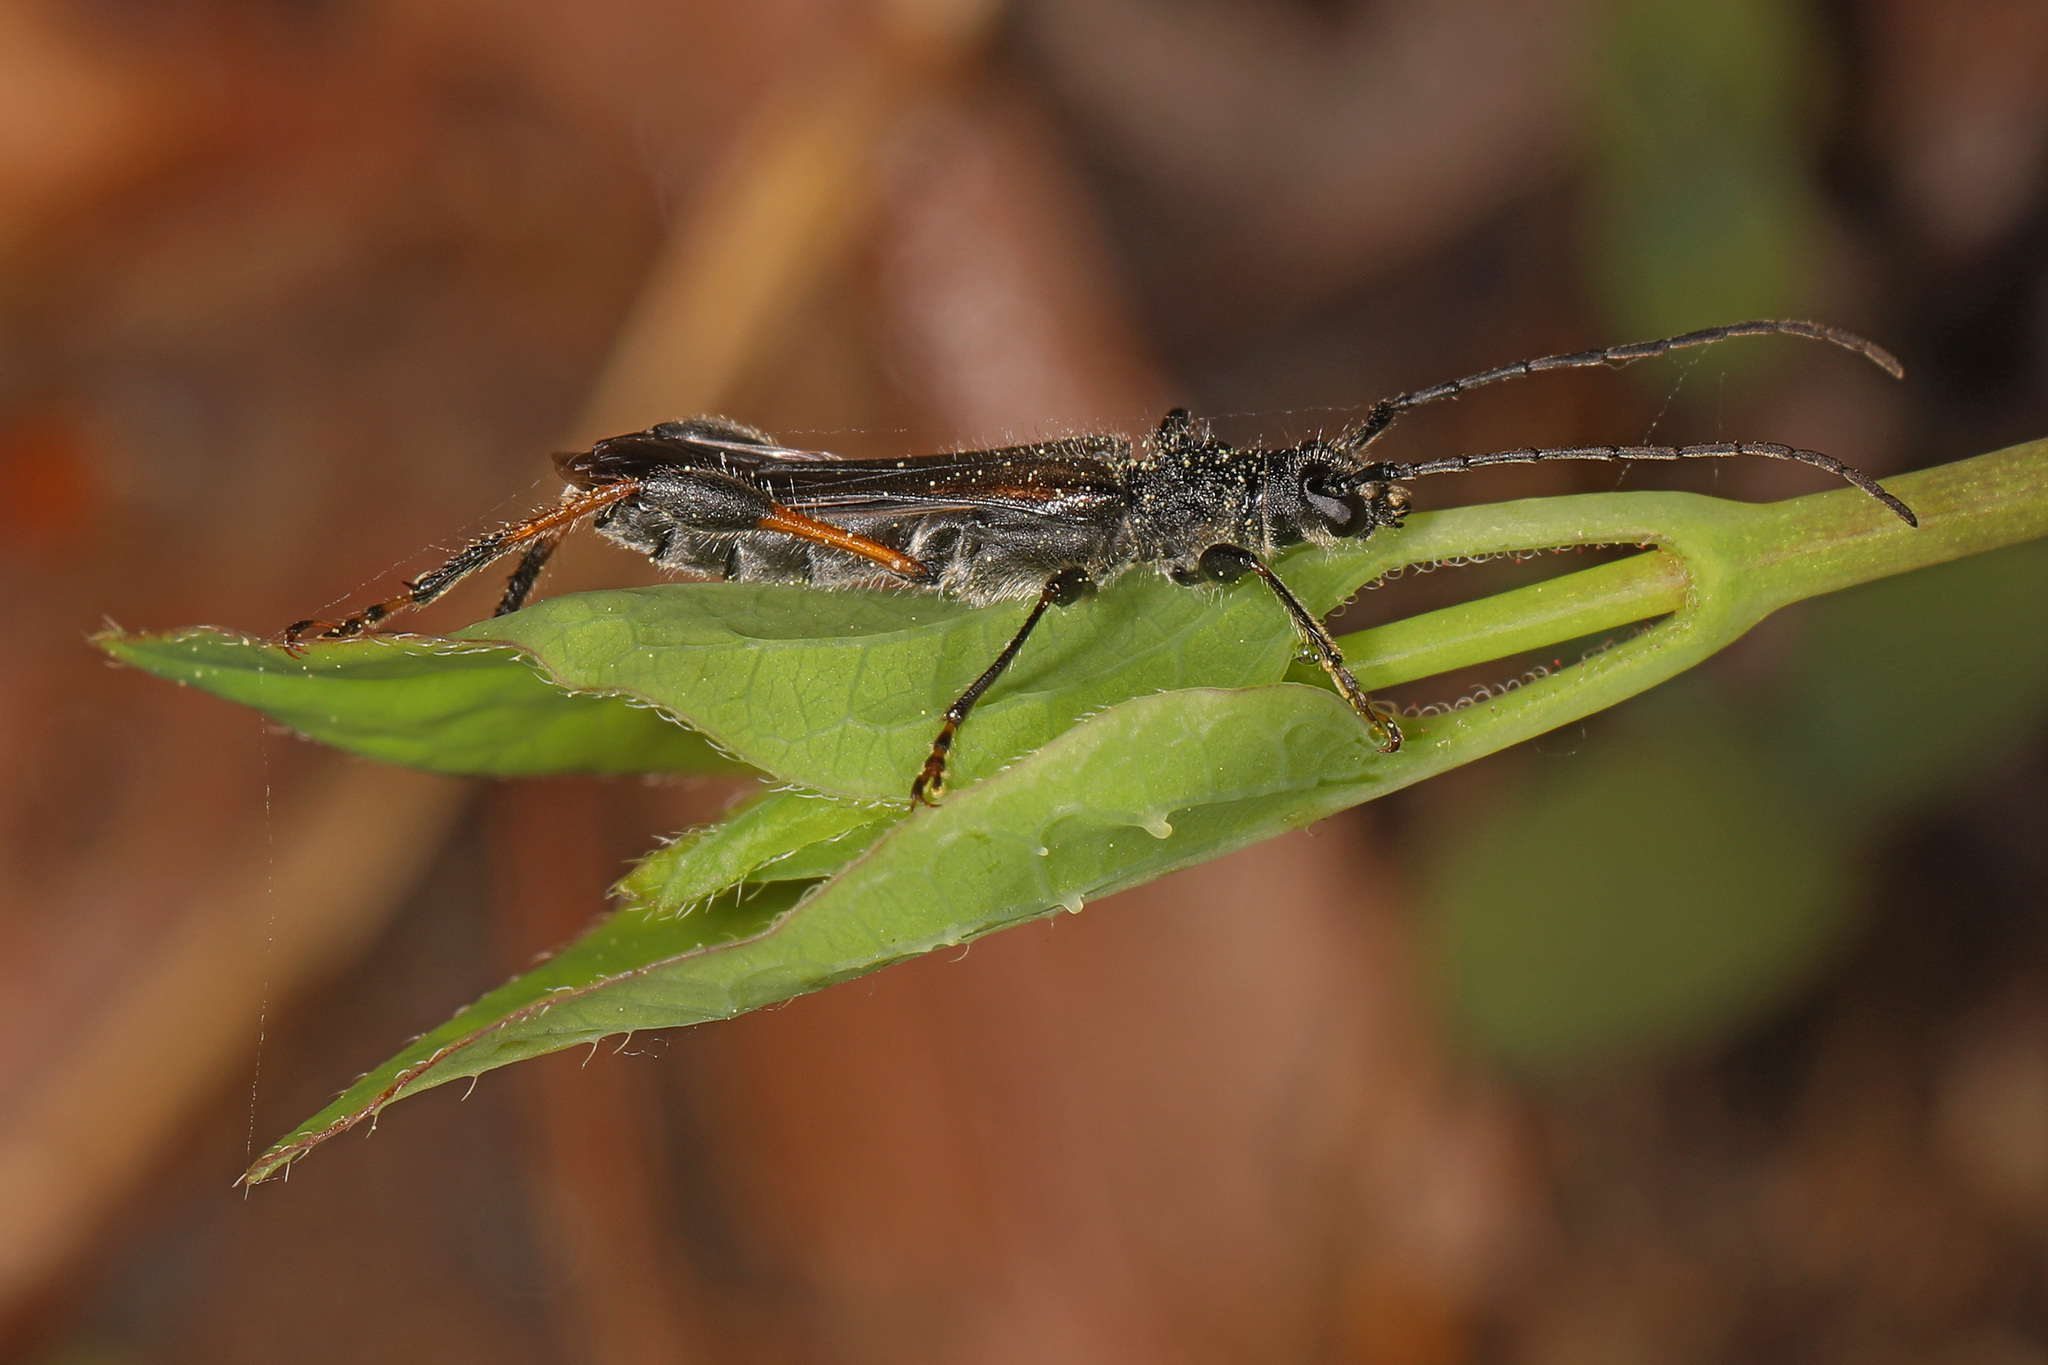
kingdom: Animalia
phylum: Arthropoda
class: Insecta
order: Coleoptera
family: Cerambycidae
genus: Callimoxys
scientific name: Callimoxys sanguinicollis
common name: Blood-necked longhorn beetle
